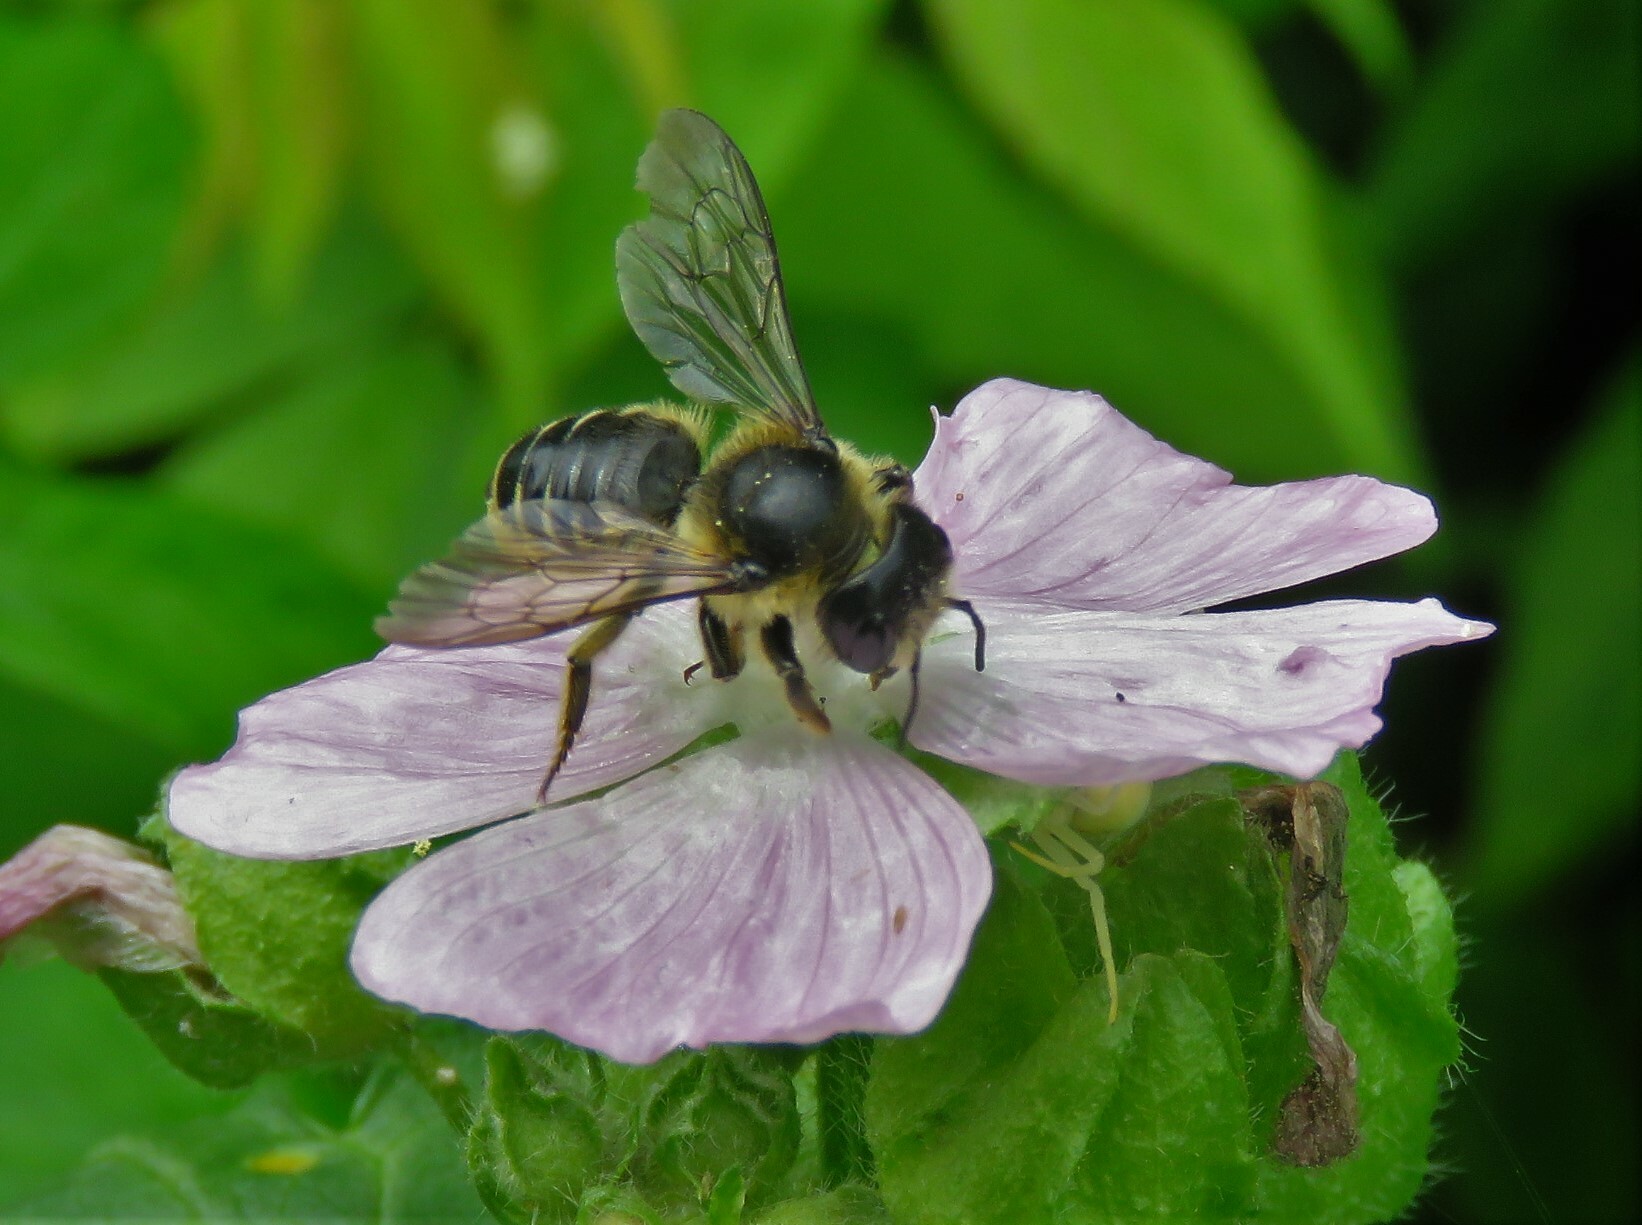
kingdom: Animalia
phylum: Arthropoda
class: Insecta
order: Hymenoptera
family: Megachilidae
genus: Megachile
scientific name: Megachile inermis
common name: Unarmed leafcutter bee
